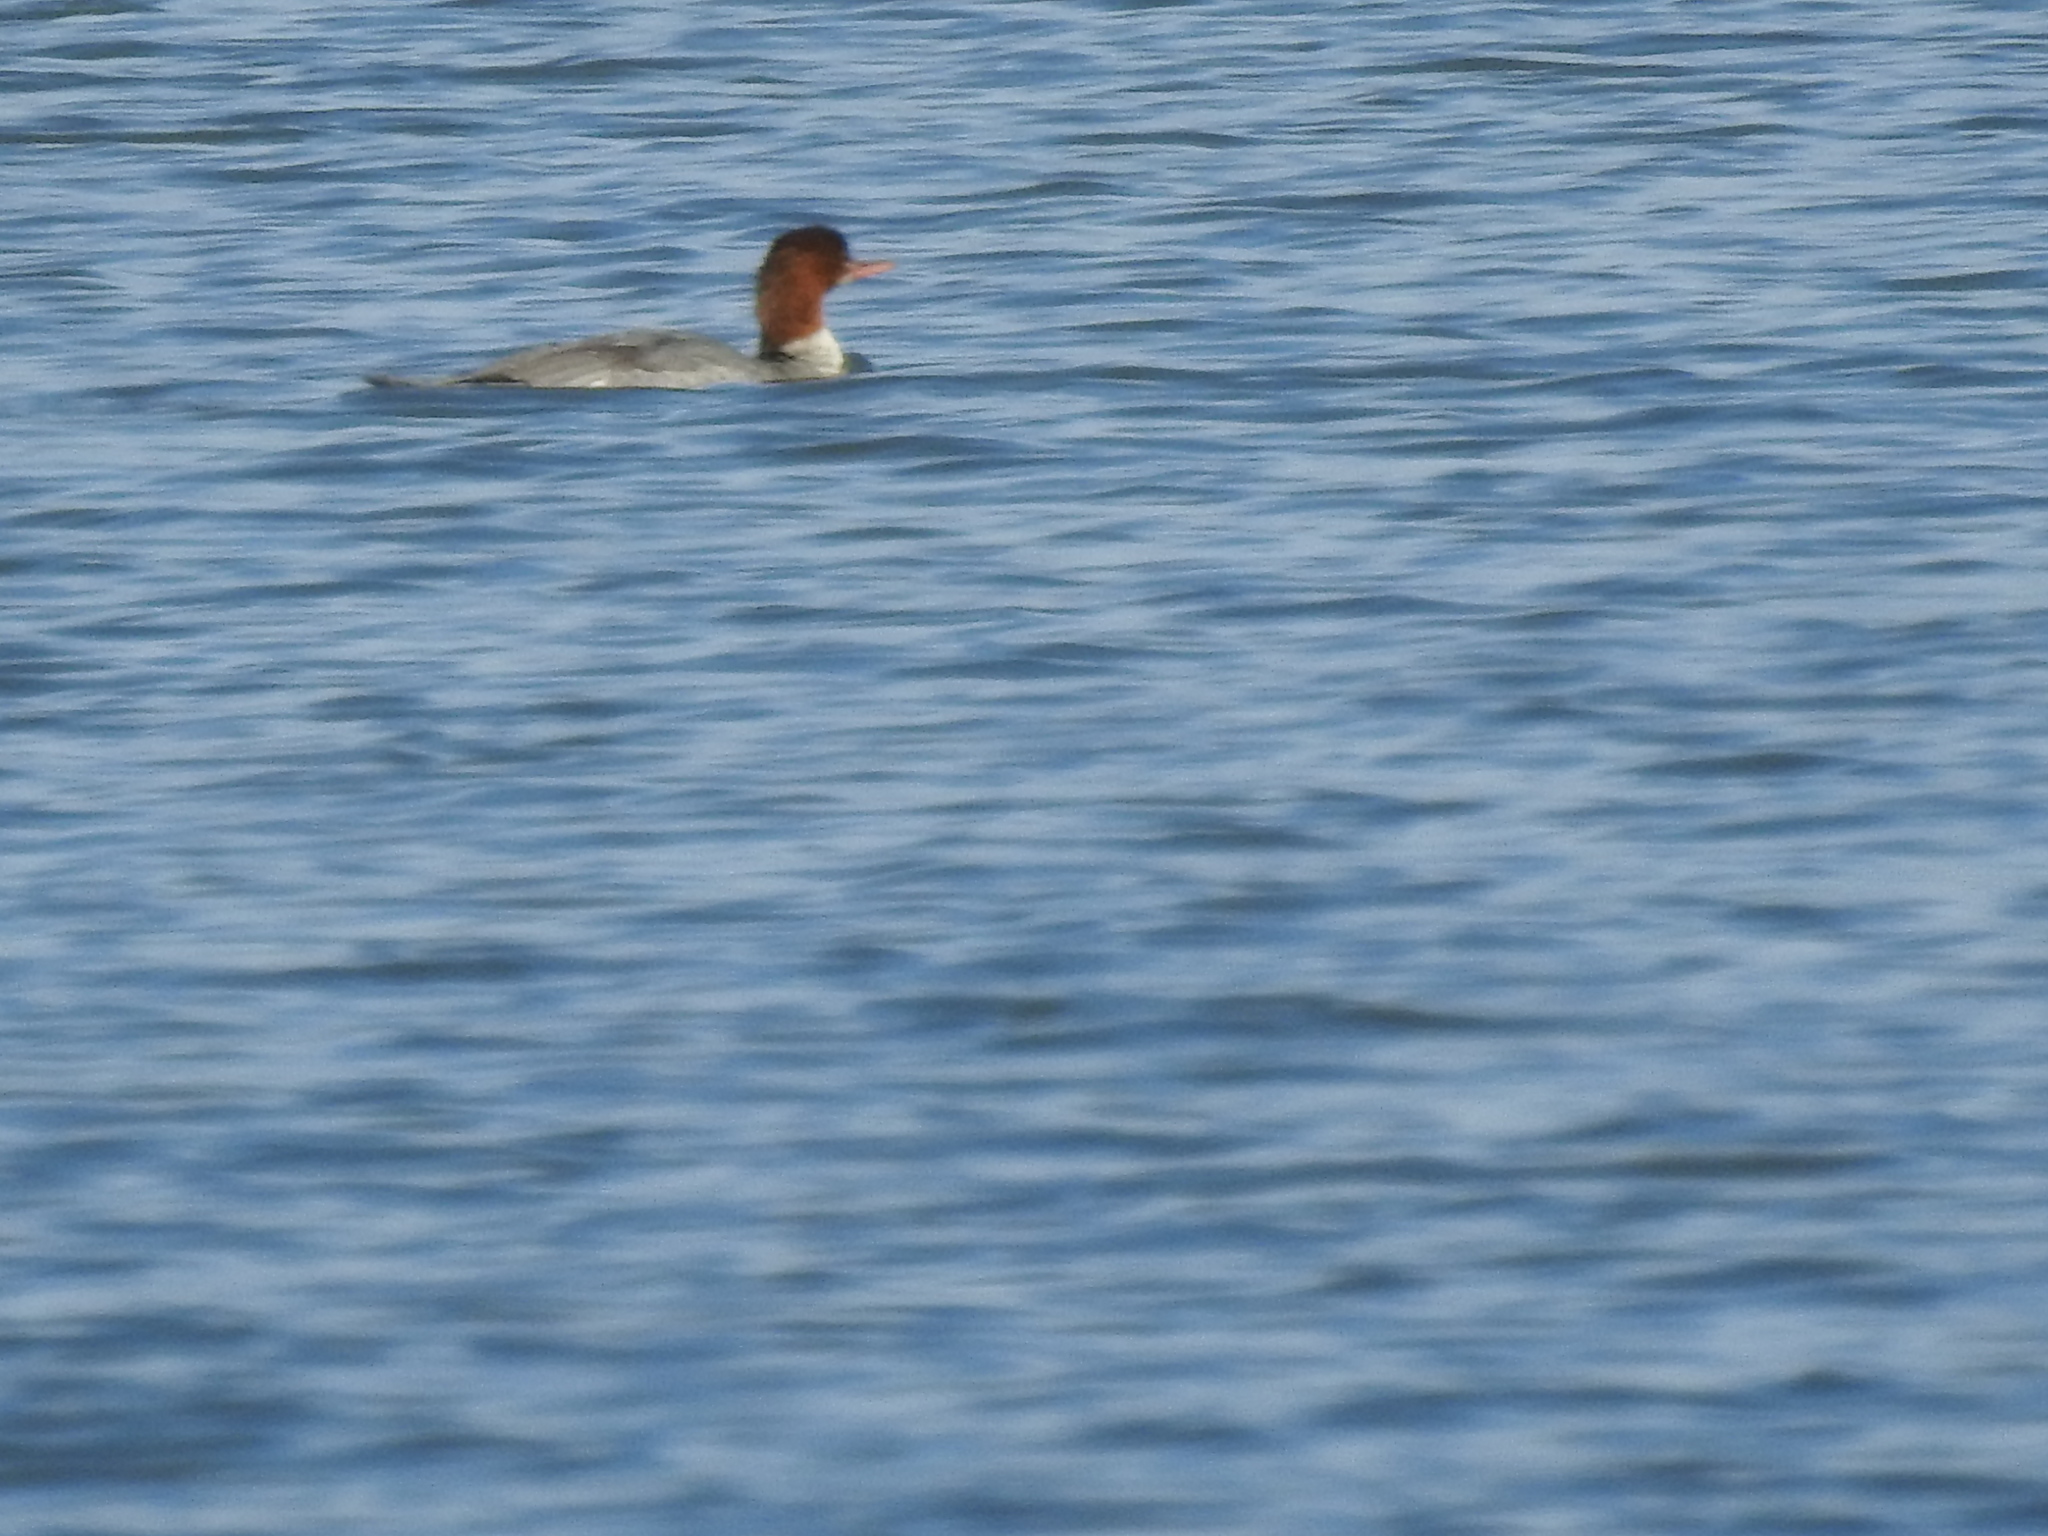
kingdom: Animalia
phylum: Chordata
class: Aves
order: Anseriformes
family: Anatidae
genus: Mergus
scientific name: Mergus merganser
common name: Common merganser
